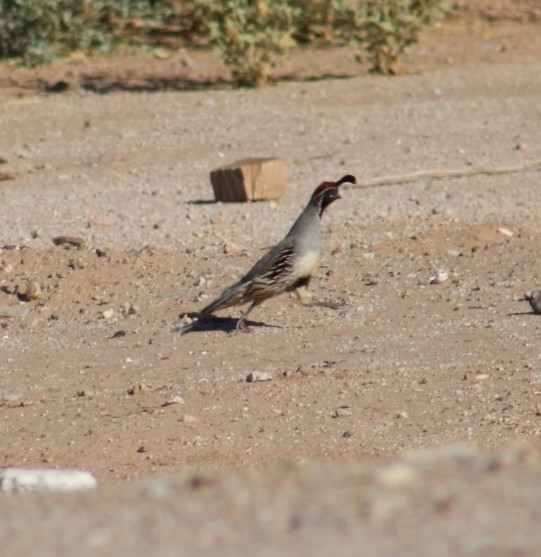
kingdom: Animalia
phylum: Chordata
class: Aves
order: Galliformes
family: Odontophoridae
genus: Callipepla
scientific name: Callipepla gambelii
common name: Gambel's quail
